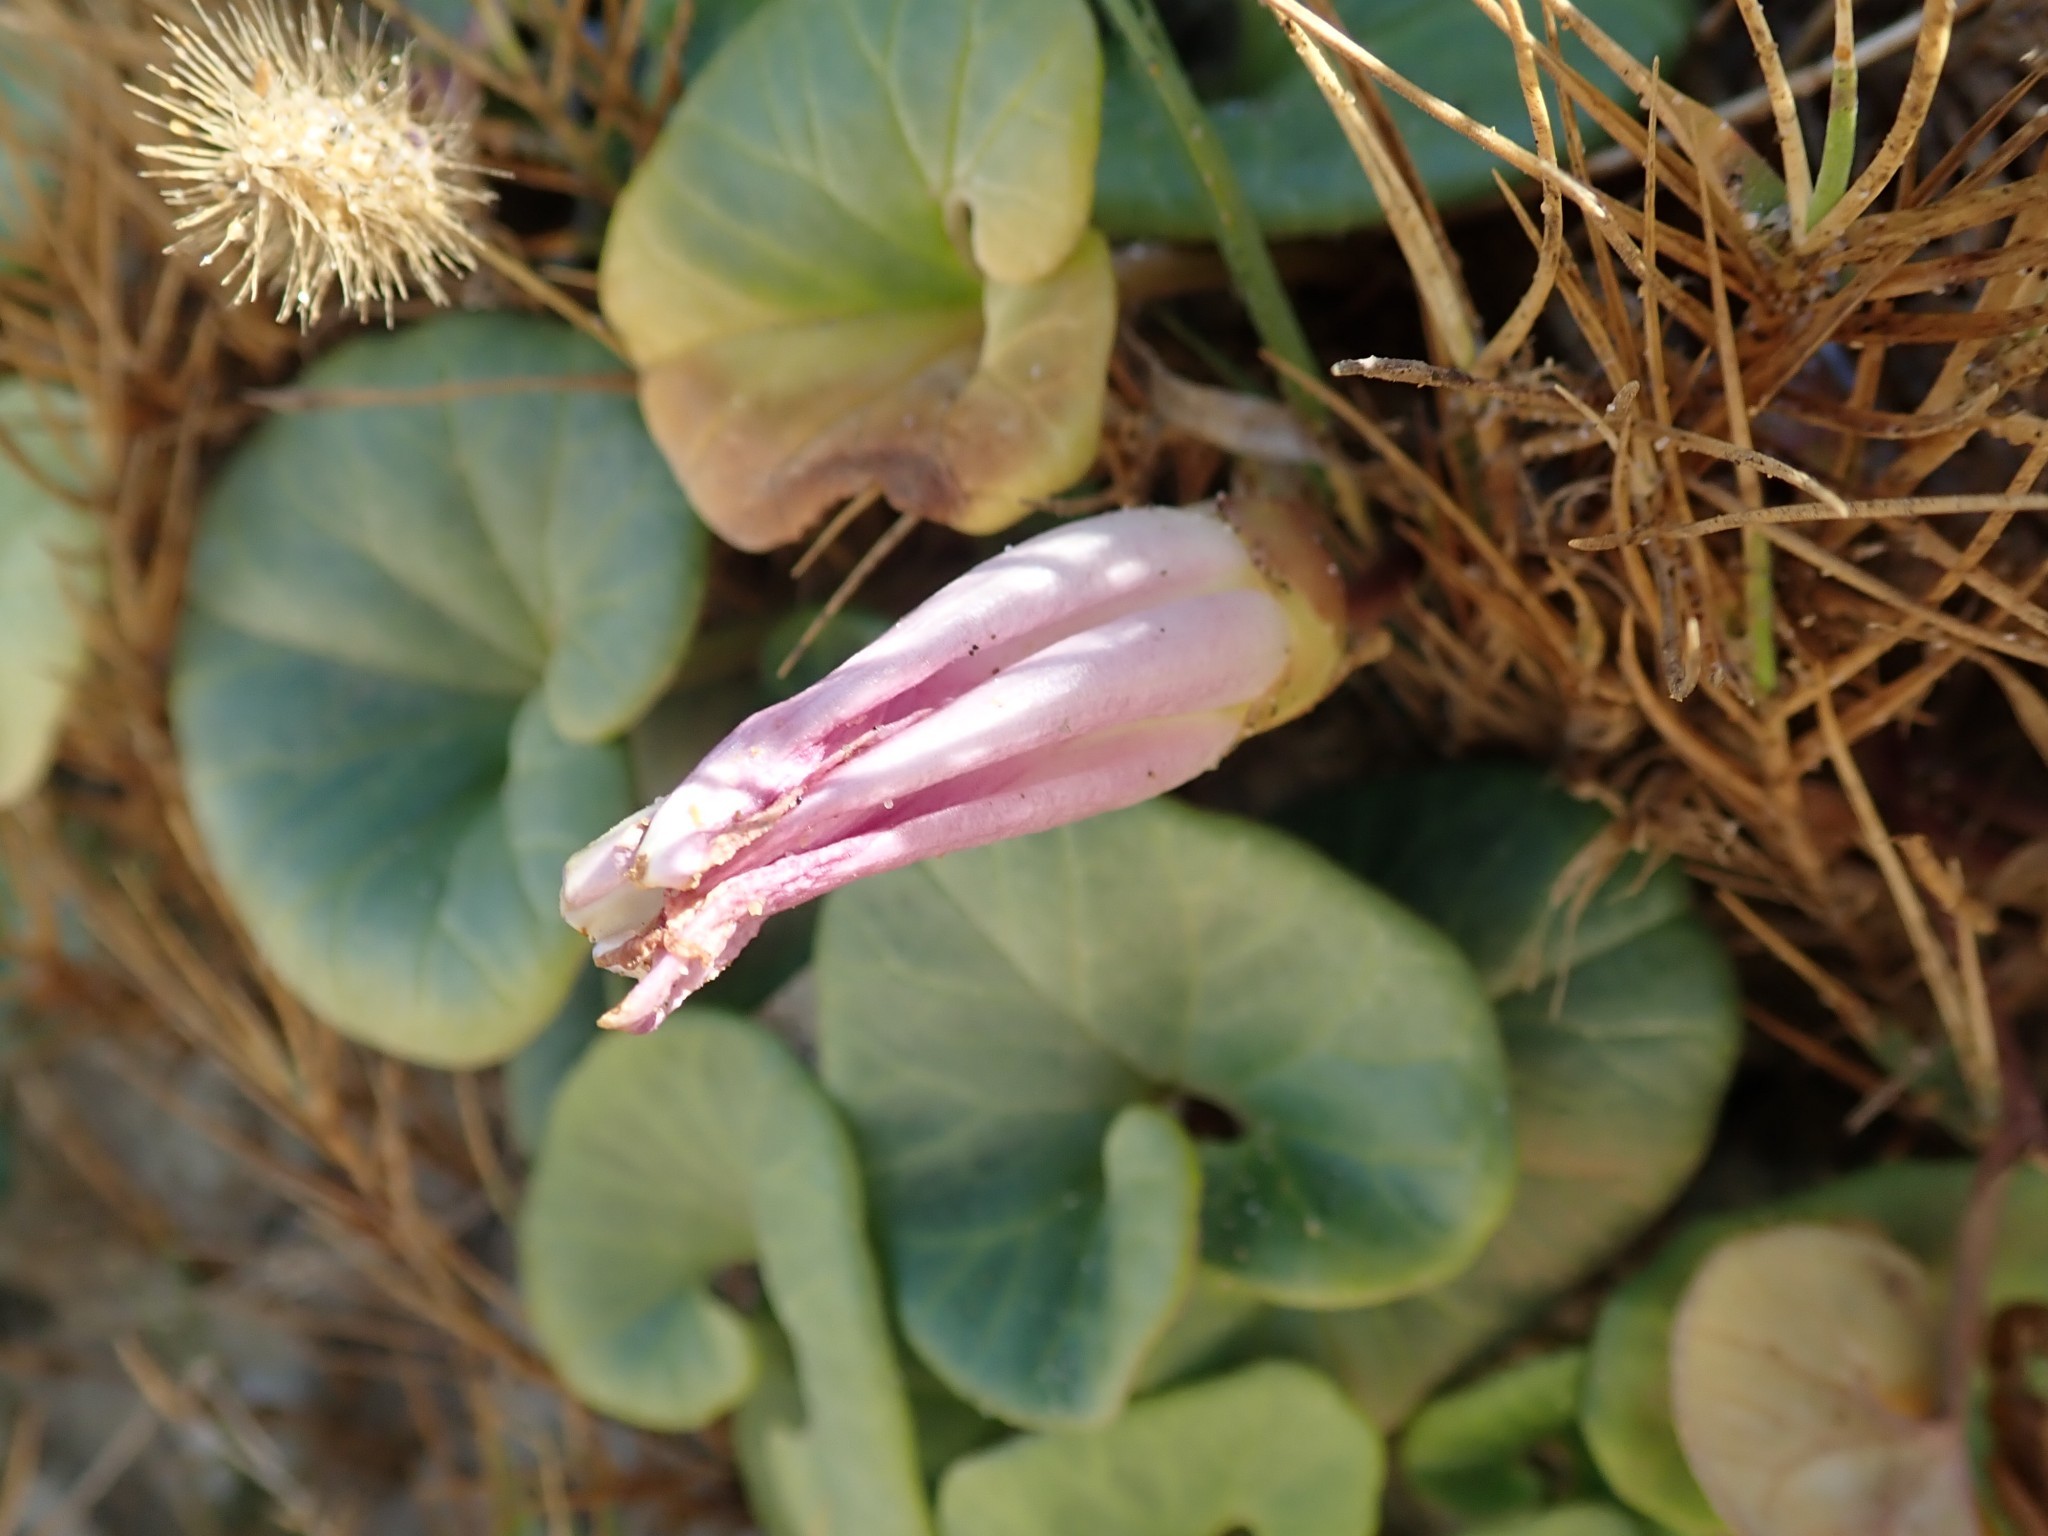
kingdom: Plantae
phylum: Tracheophyta
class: Magnoliopsida
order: Solanales
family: Convolvulaceae
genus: Calystegia
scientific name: Calystegia soldanella
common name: Sea bindweed
